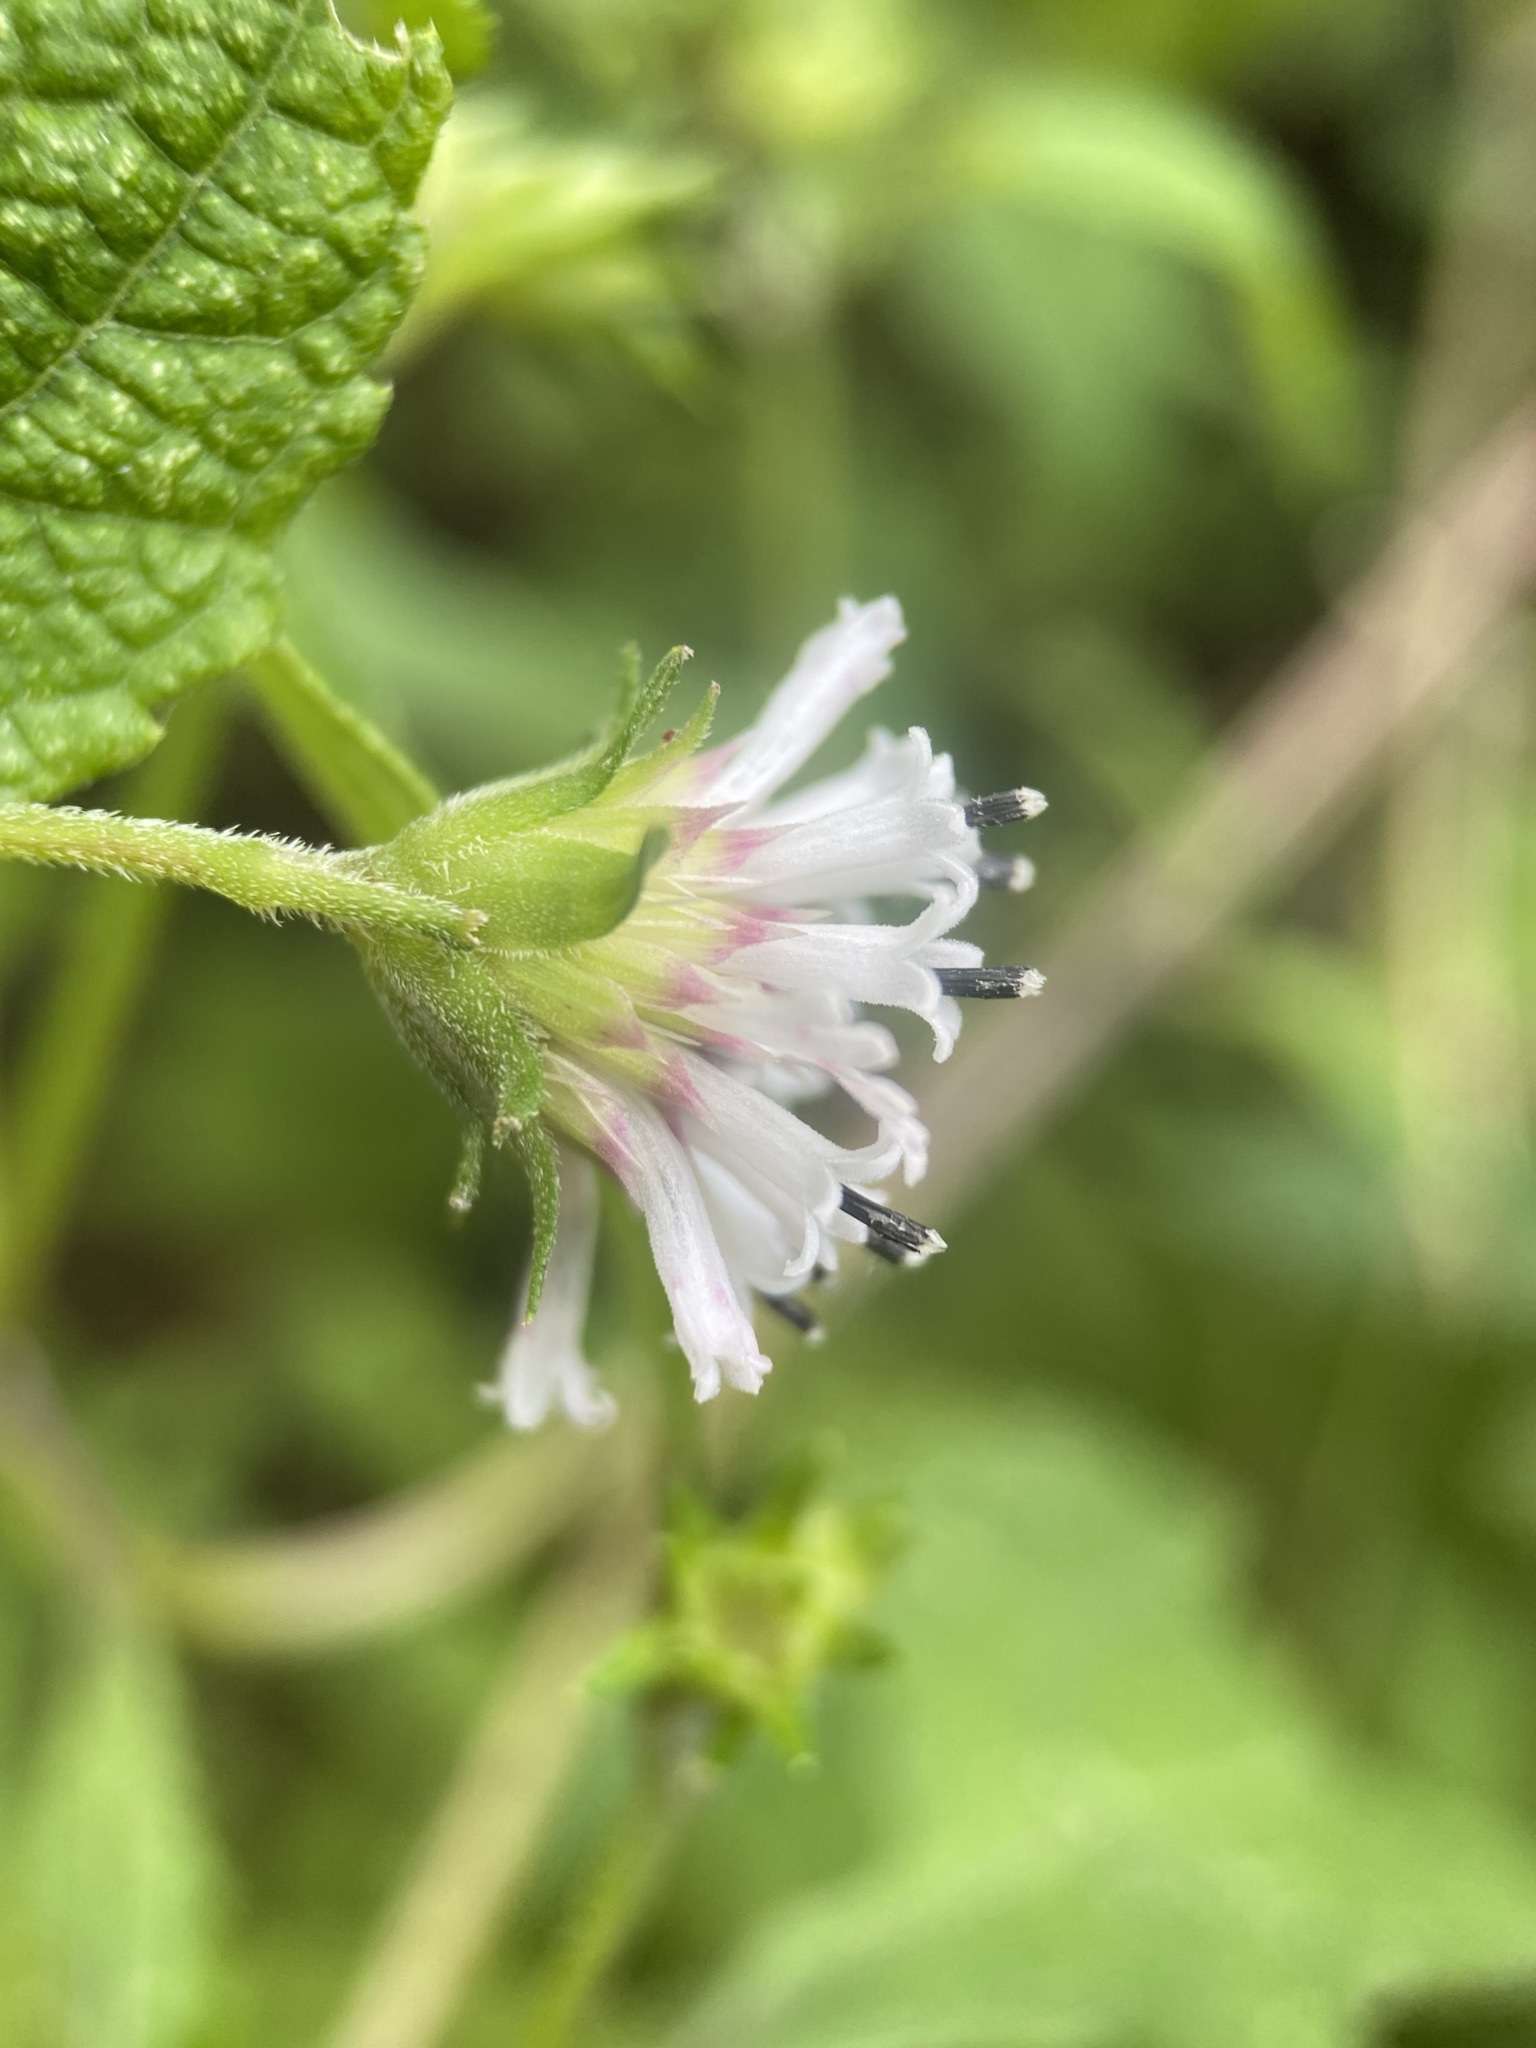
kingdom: Plantae
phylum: Tracheophyta
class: Magnoliopsida
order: Asterales
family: Asteraceae
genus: Melanthera
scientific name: Melanthera nivea
